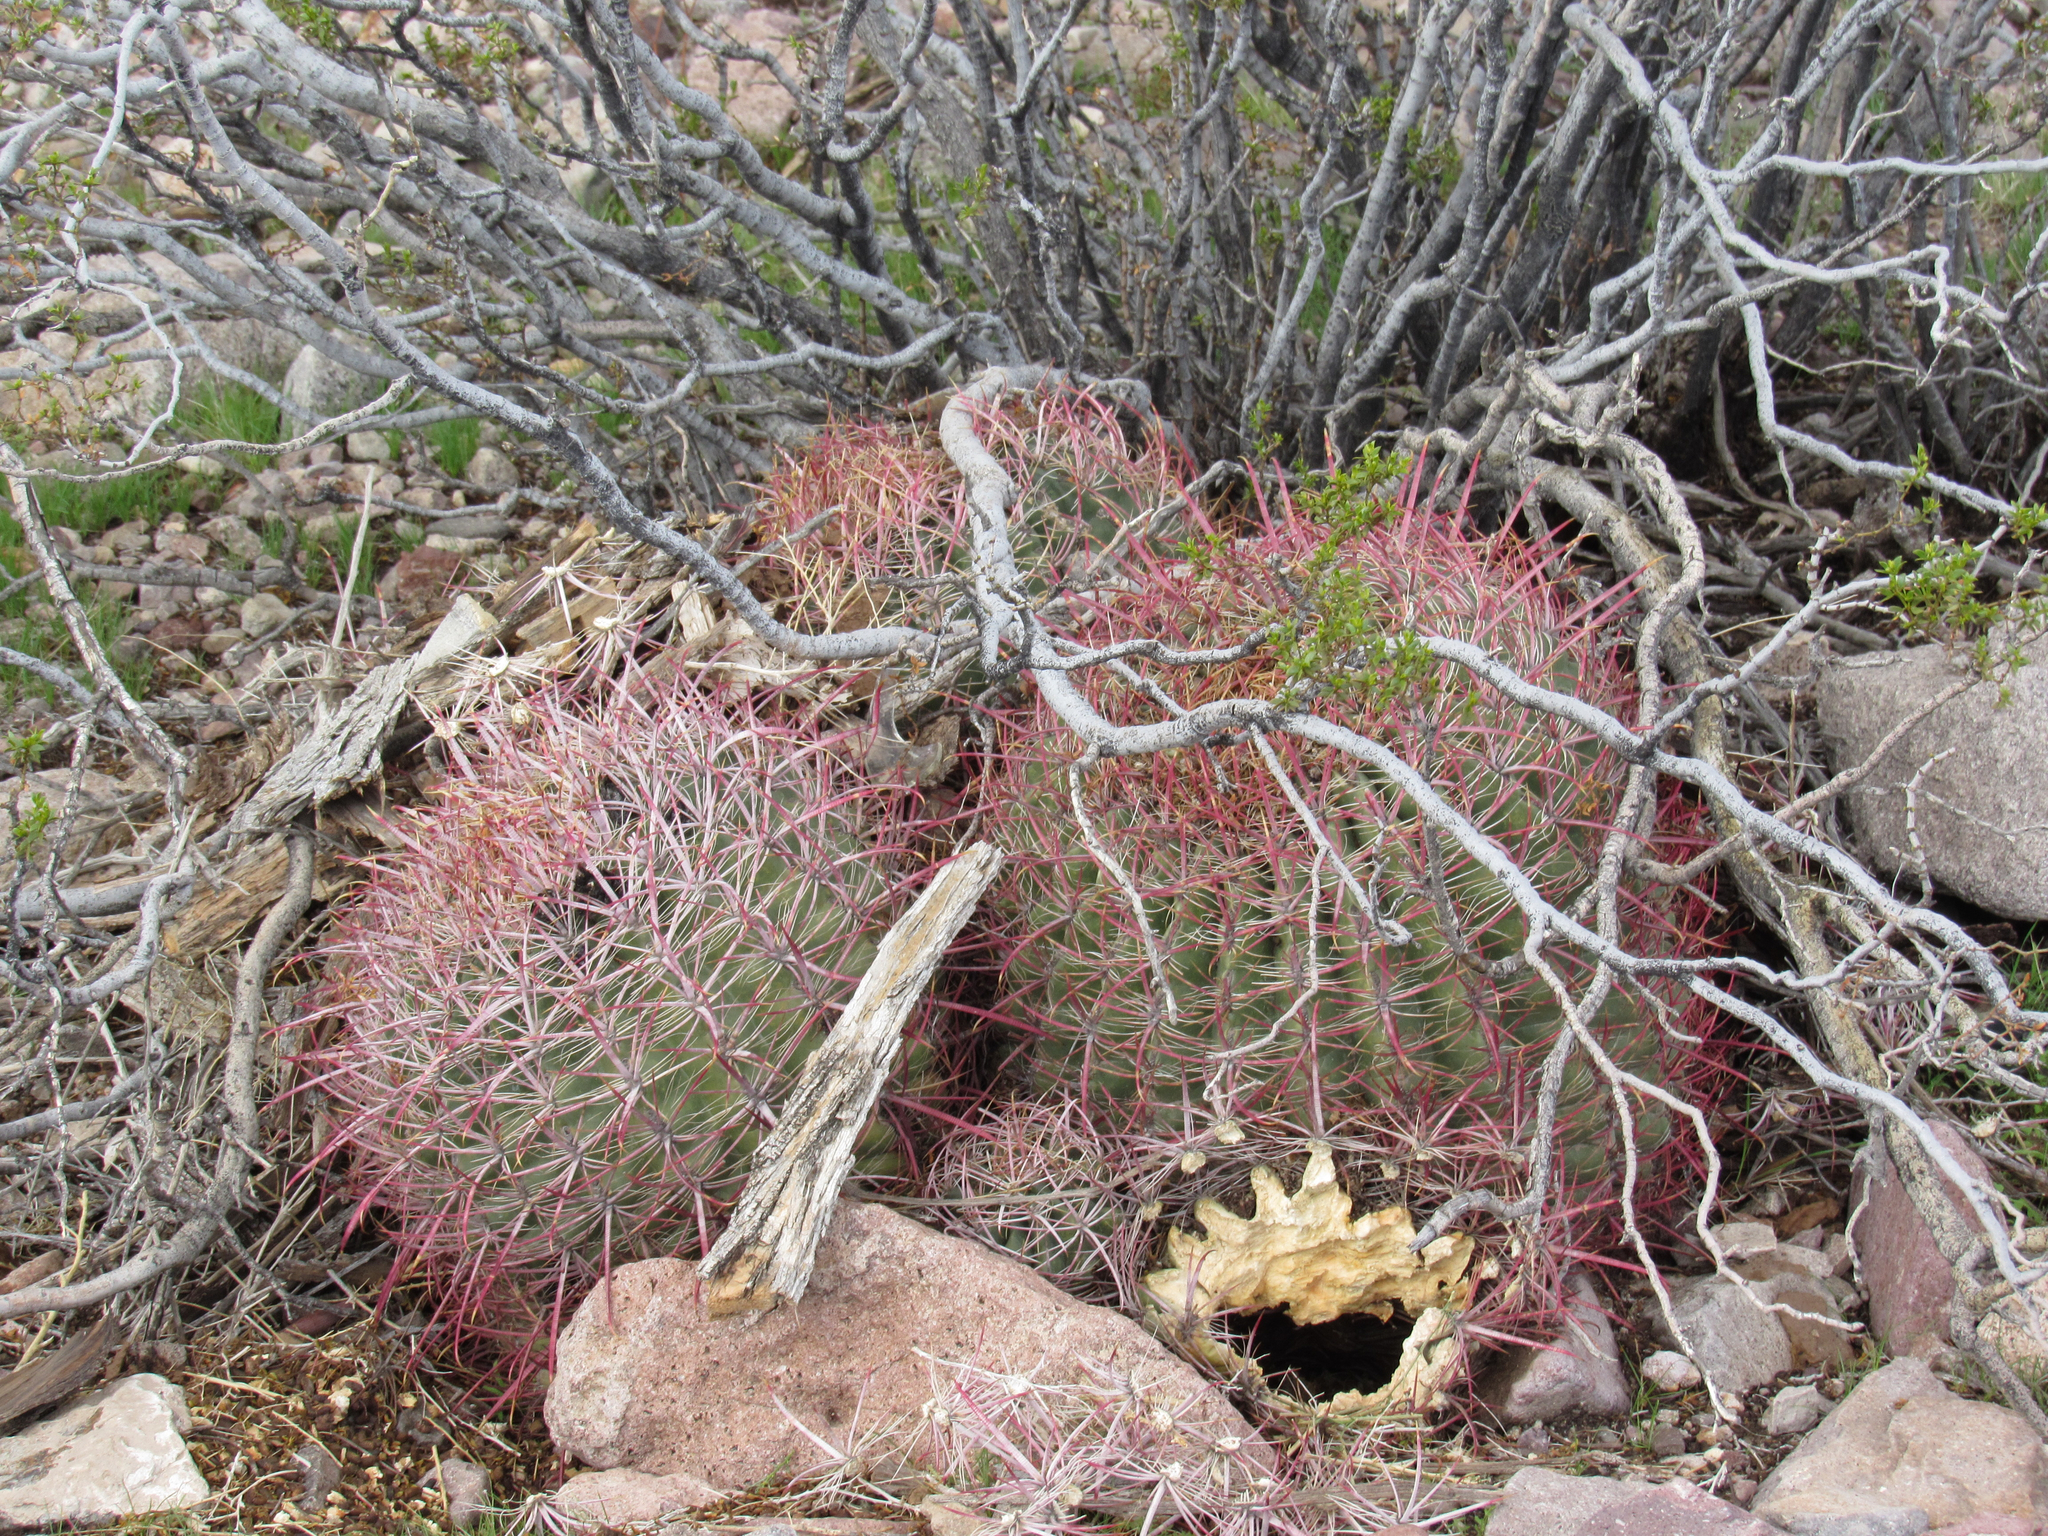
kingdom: Plantae
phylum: Tracheophyta
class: Magnoliopsida
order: Caryophyllales
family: Cactaceae
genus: Ferocactus
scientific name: Ferocactus cylindraceus
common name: California barrel cactus
